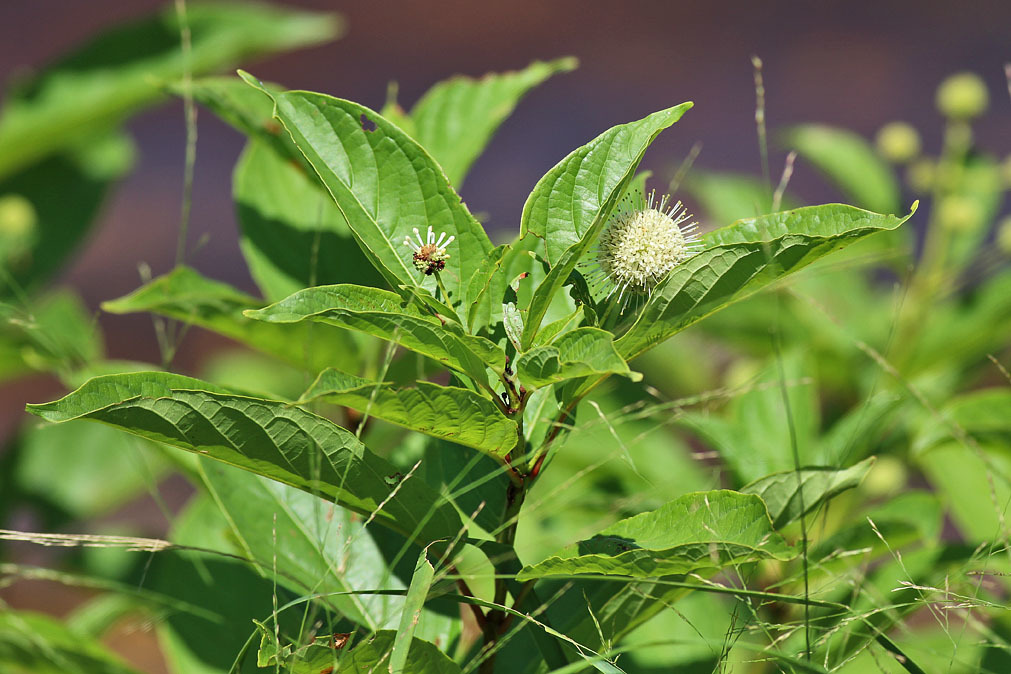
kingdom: Plantae
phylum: Tracheophyta
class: Magnoliopsida
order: Gentianales
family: Rubiaceae
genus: Cephalanthus
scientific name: Cephalanthus occidentalis
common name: Button-willow
